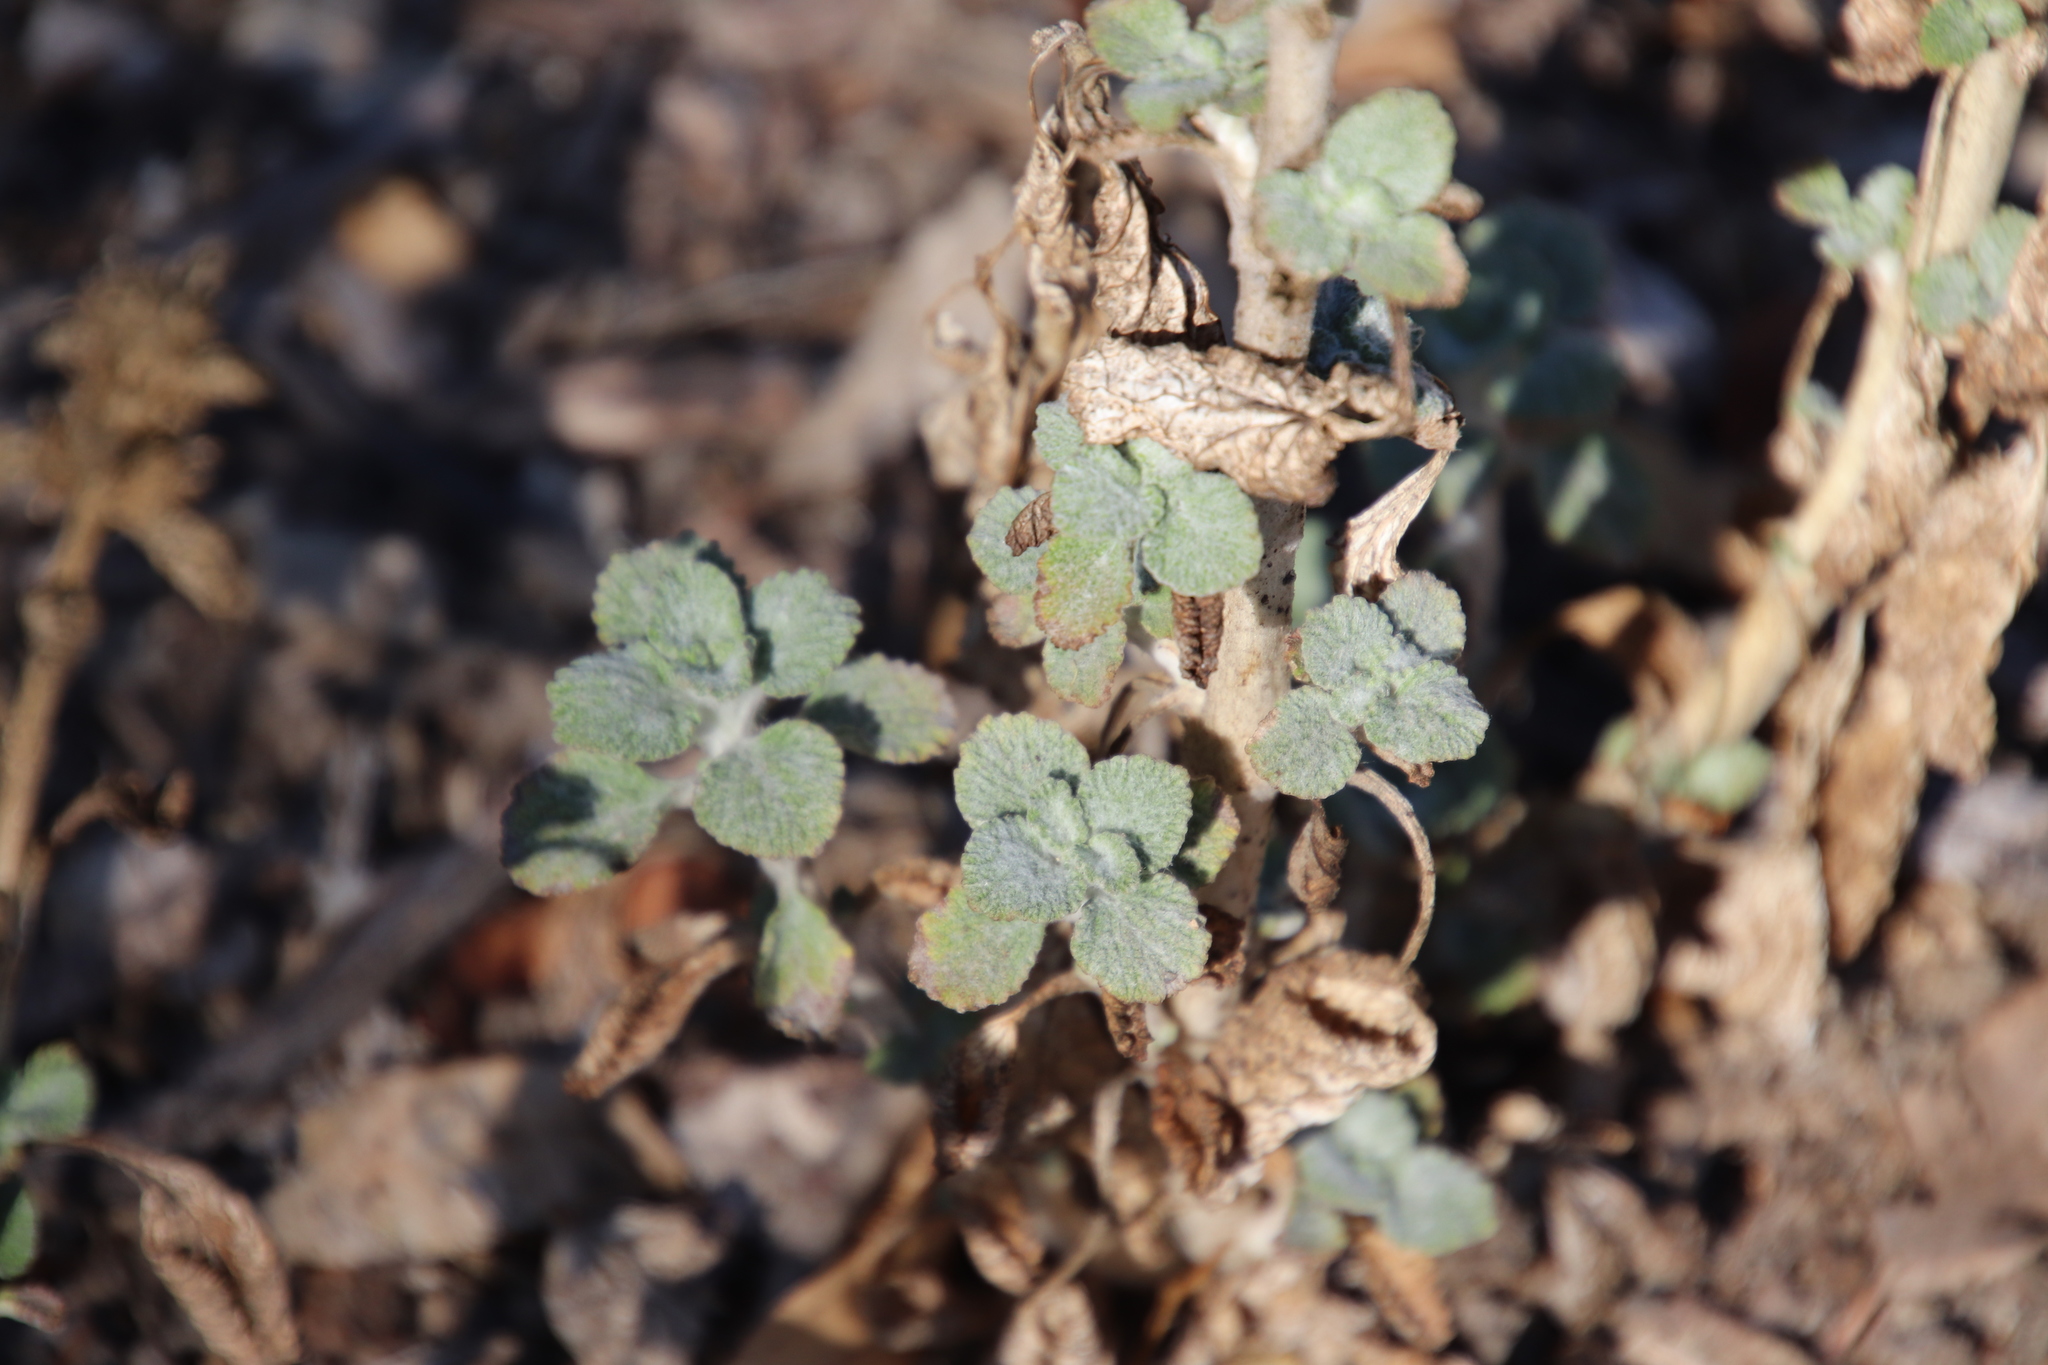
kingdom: Plantae
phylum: Tracheophyta
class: Magnoliopsida
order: Lamiales
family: Lamiaceae
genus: Marrubium
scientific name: Marrubium vulgare
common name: Horehound
